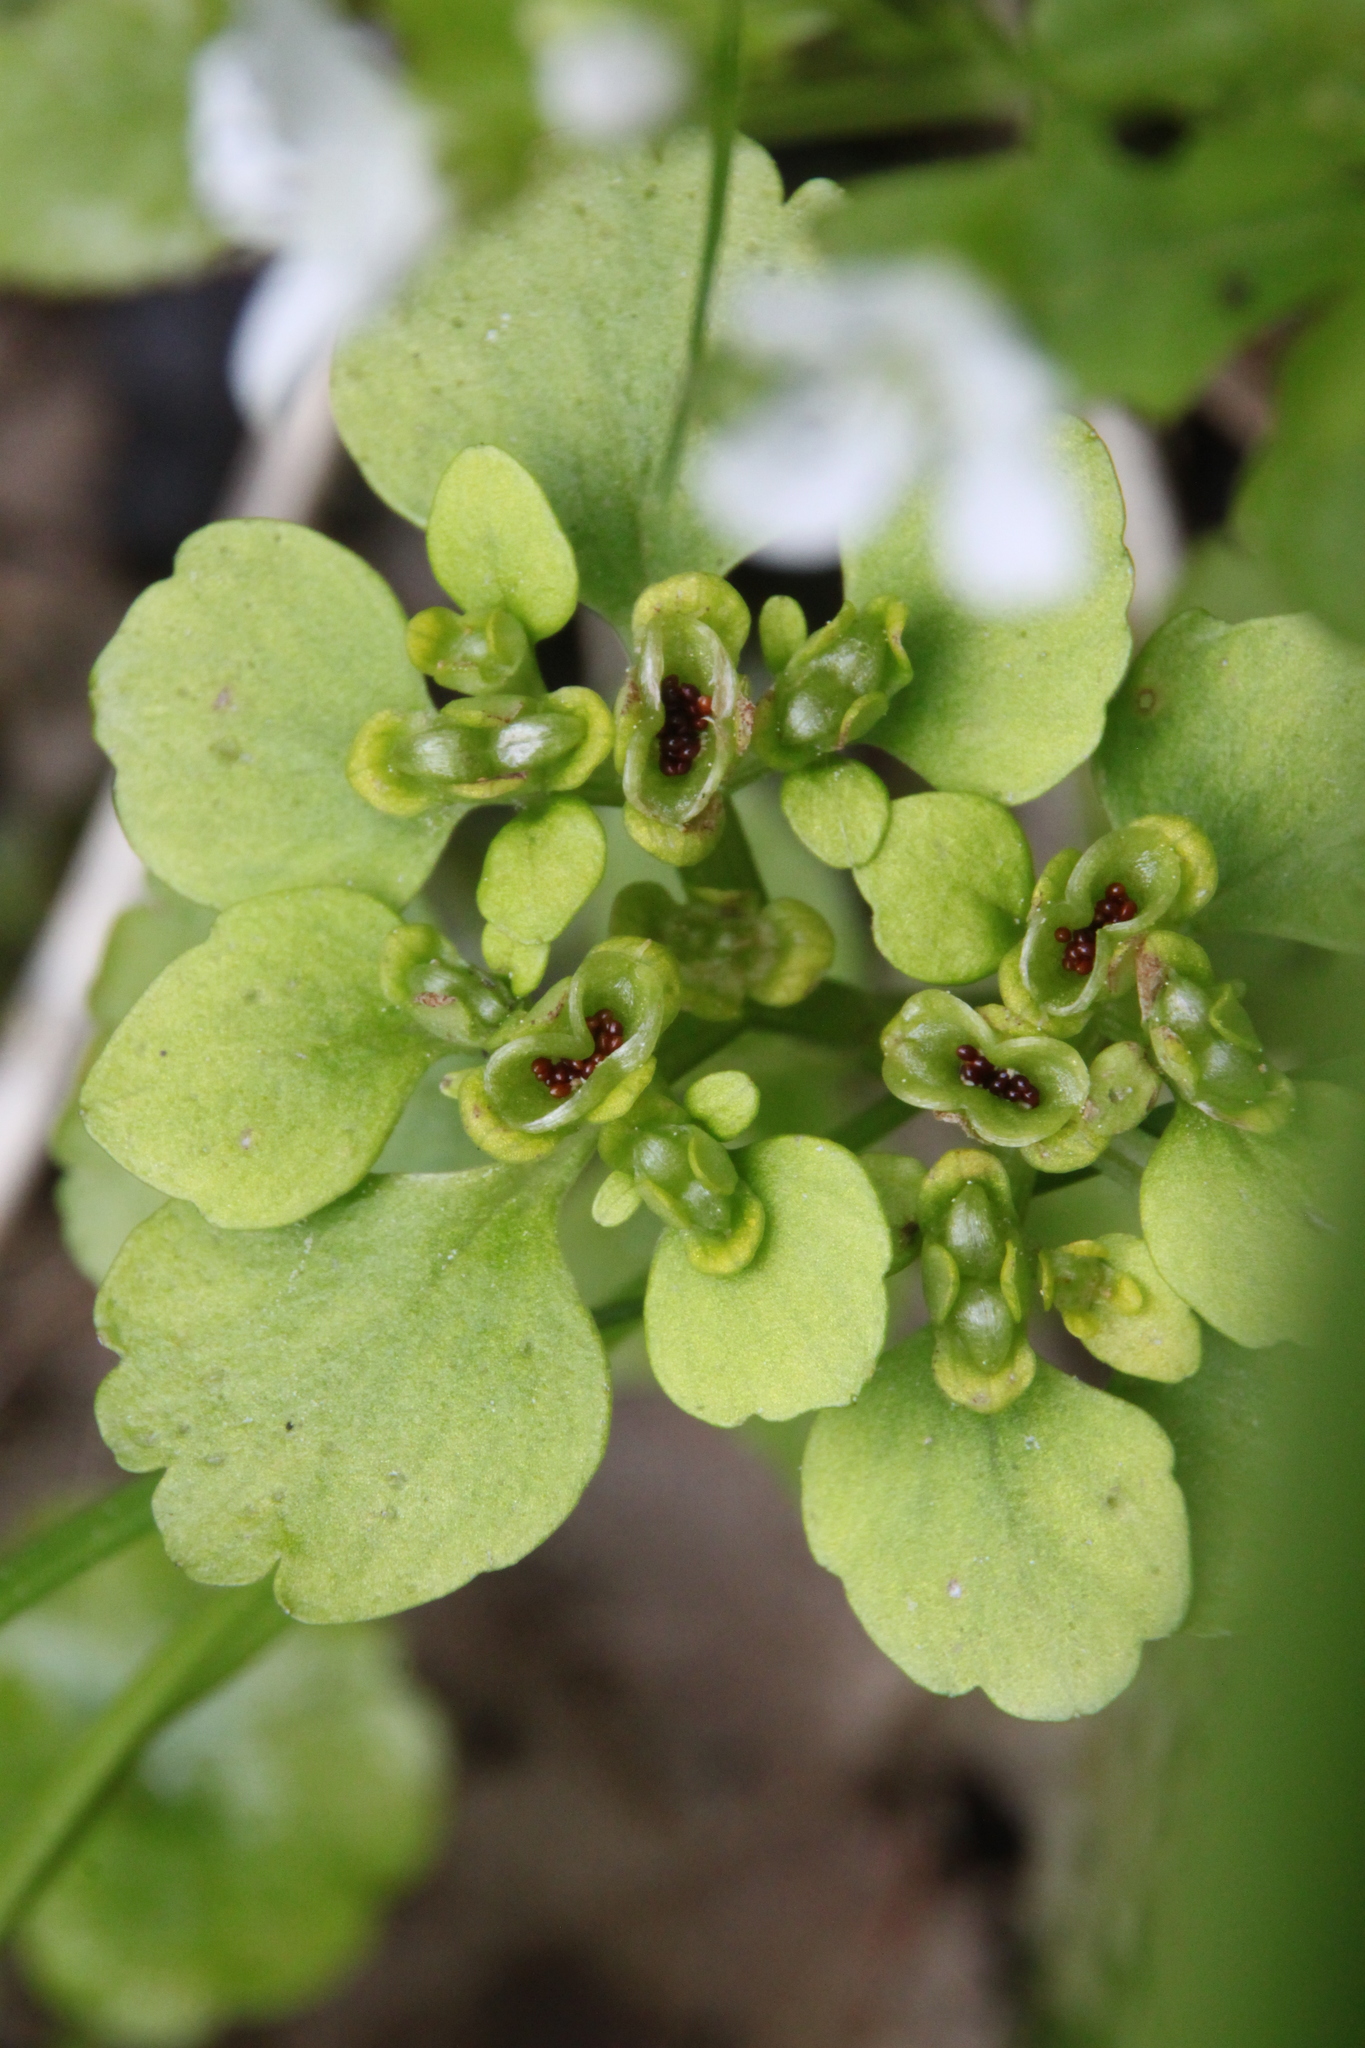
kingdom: Plantae
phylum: Tracheophyta
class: Magnoliopsida
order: Saxifragales
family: Saxifragaceae
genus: Chrysosplenium
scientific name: Chrysosplenium alternifolium
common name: Alternate-leaved golden-saxifrage
